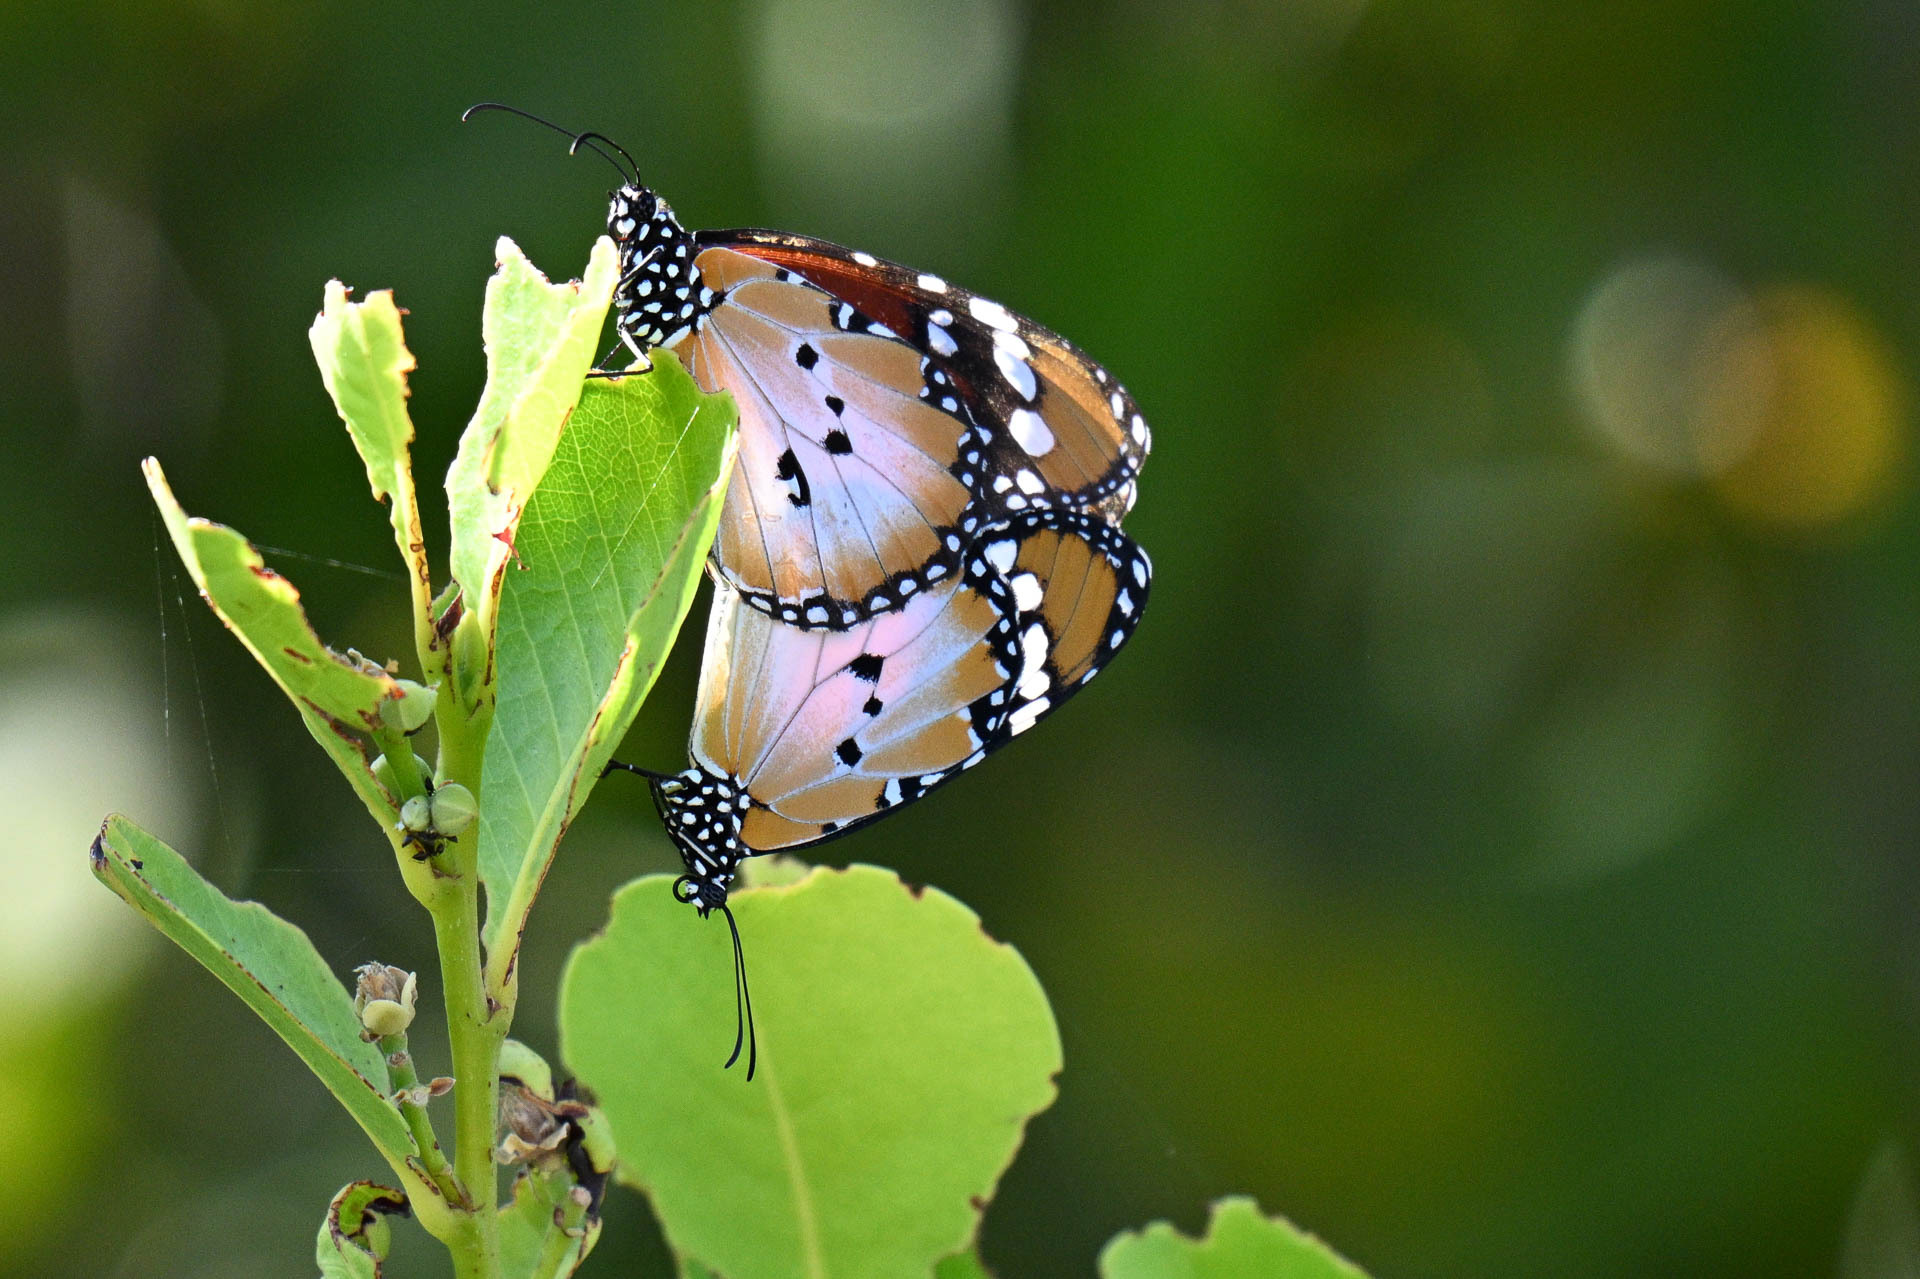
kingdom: Animalia
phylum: Arthropoda
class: Insecta
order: Lepidoptera
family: Nymphalidae
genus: Danaus
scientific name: Danaus chrysippus
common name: Plain tiger
